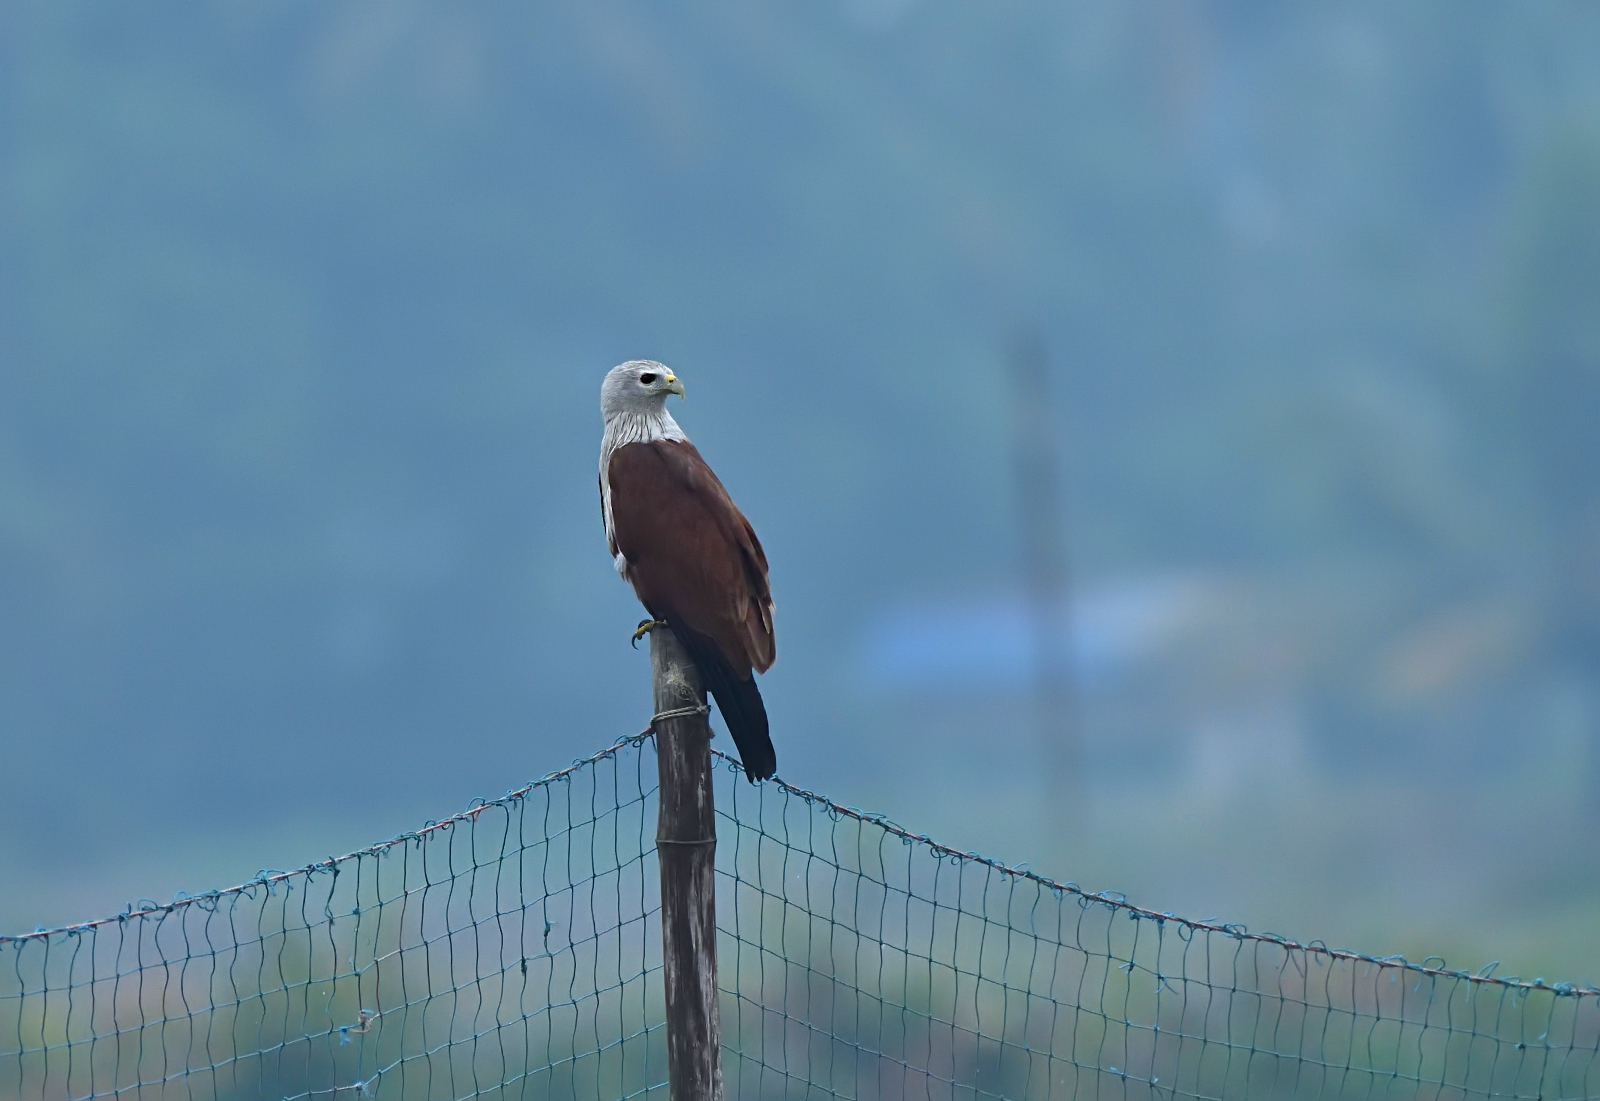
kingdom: Animalia
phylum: Chordata
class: Aves
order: Accipitriformes
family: Accipitridae
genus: Haliastur
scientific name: Haliastur indus
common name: Brahminy kite
